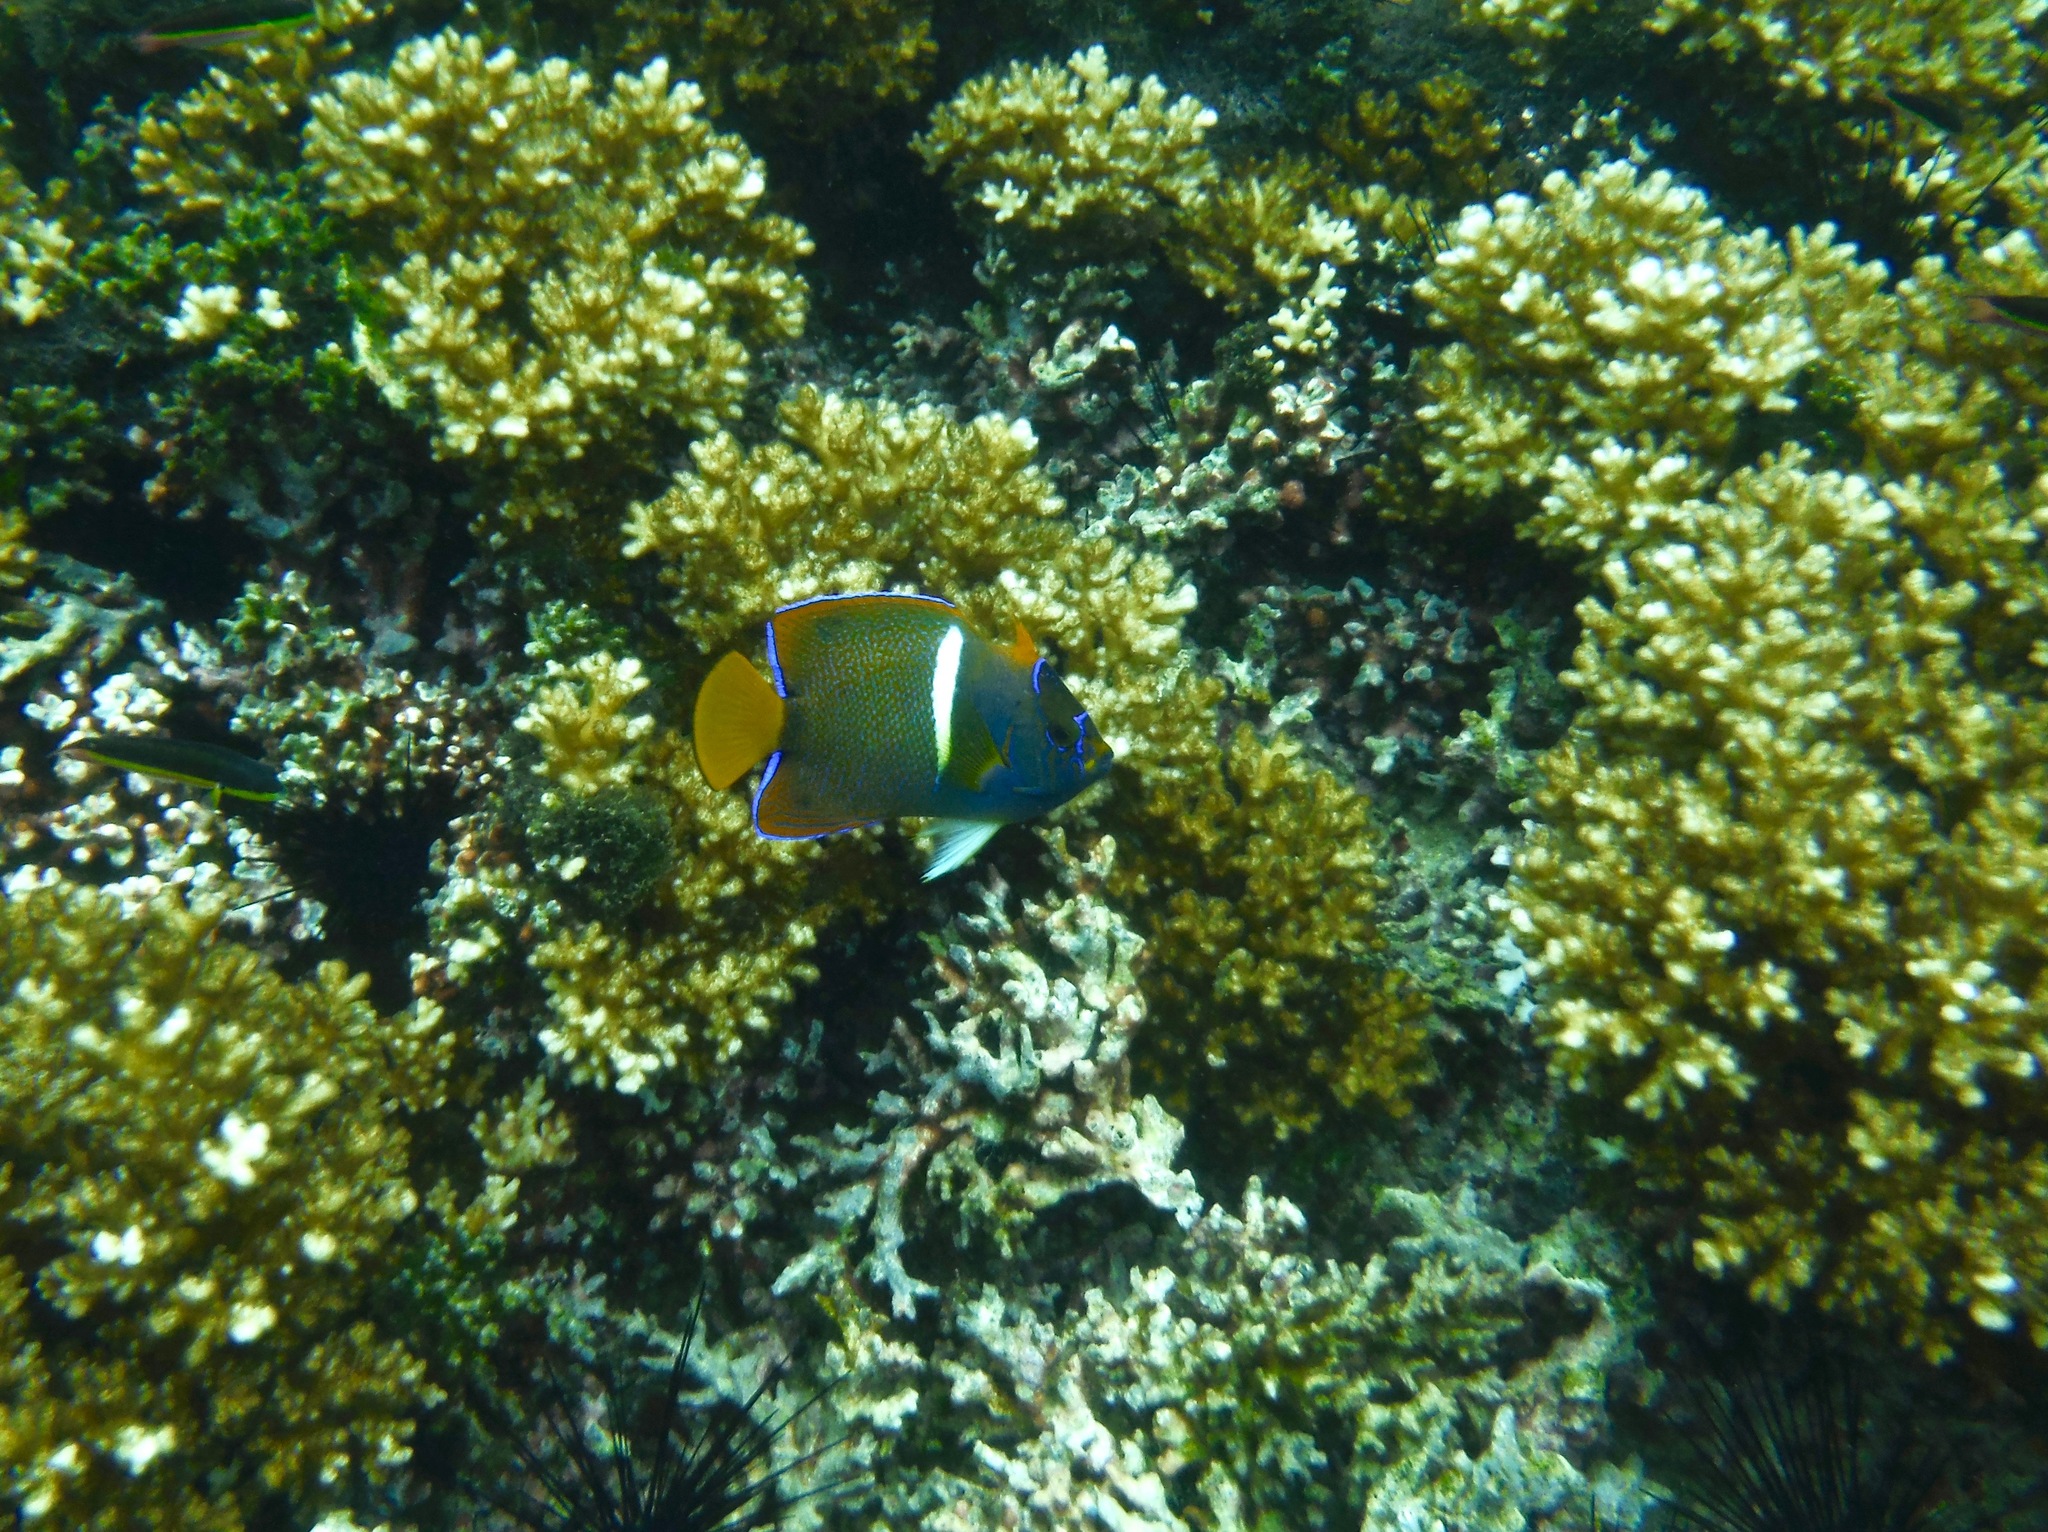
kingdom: Animalia
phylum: Chordata
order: Perciformes
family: Pomacanthidae
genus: Holacanthus
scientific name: Holacanthus passer
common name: King angelfish
